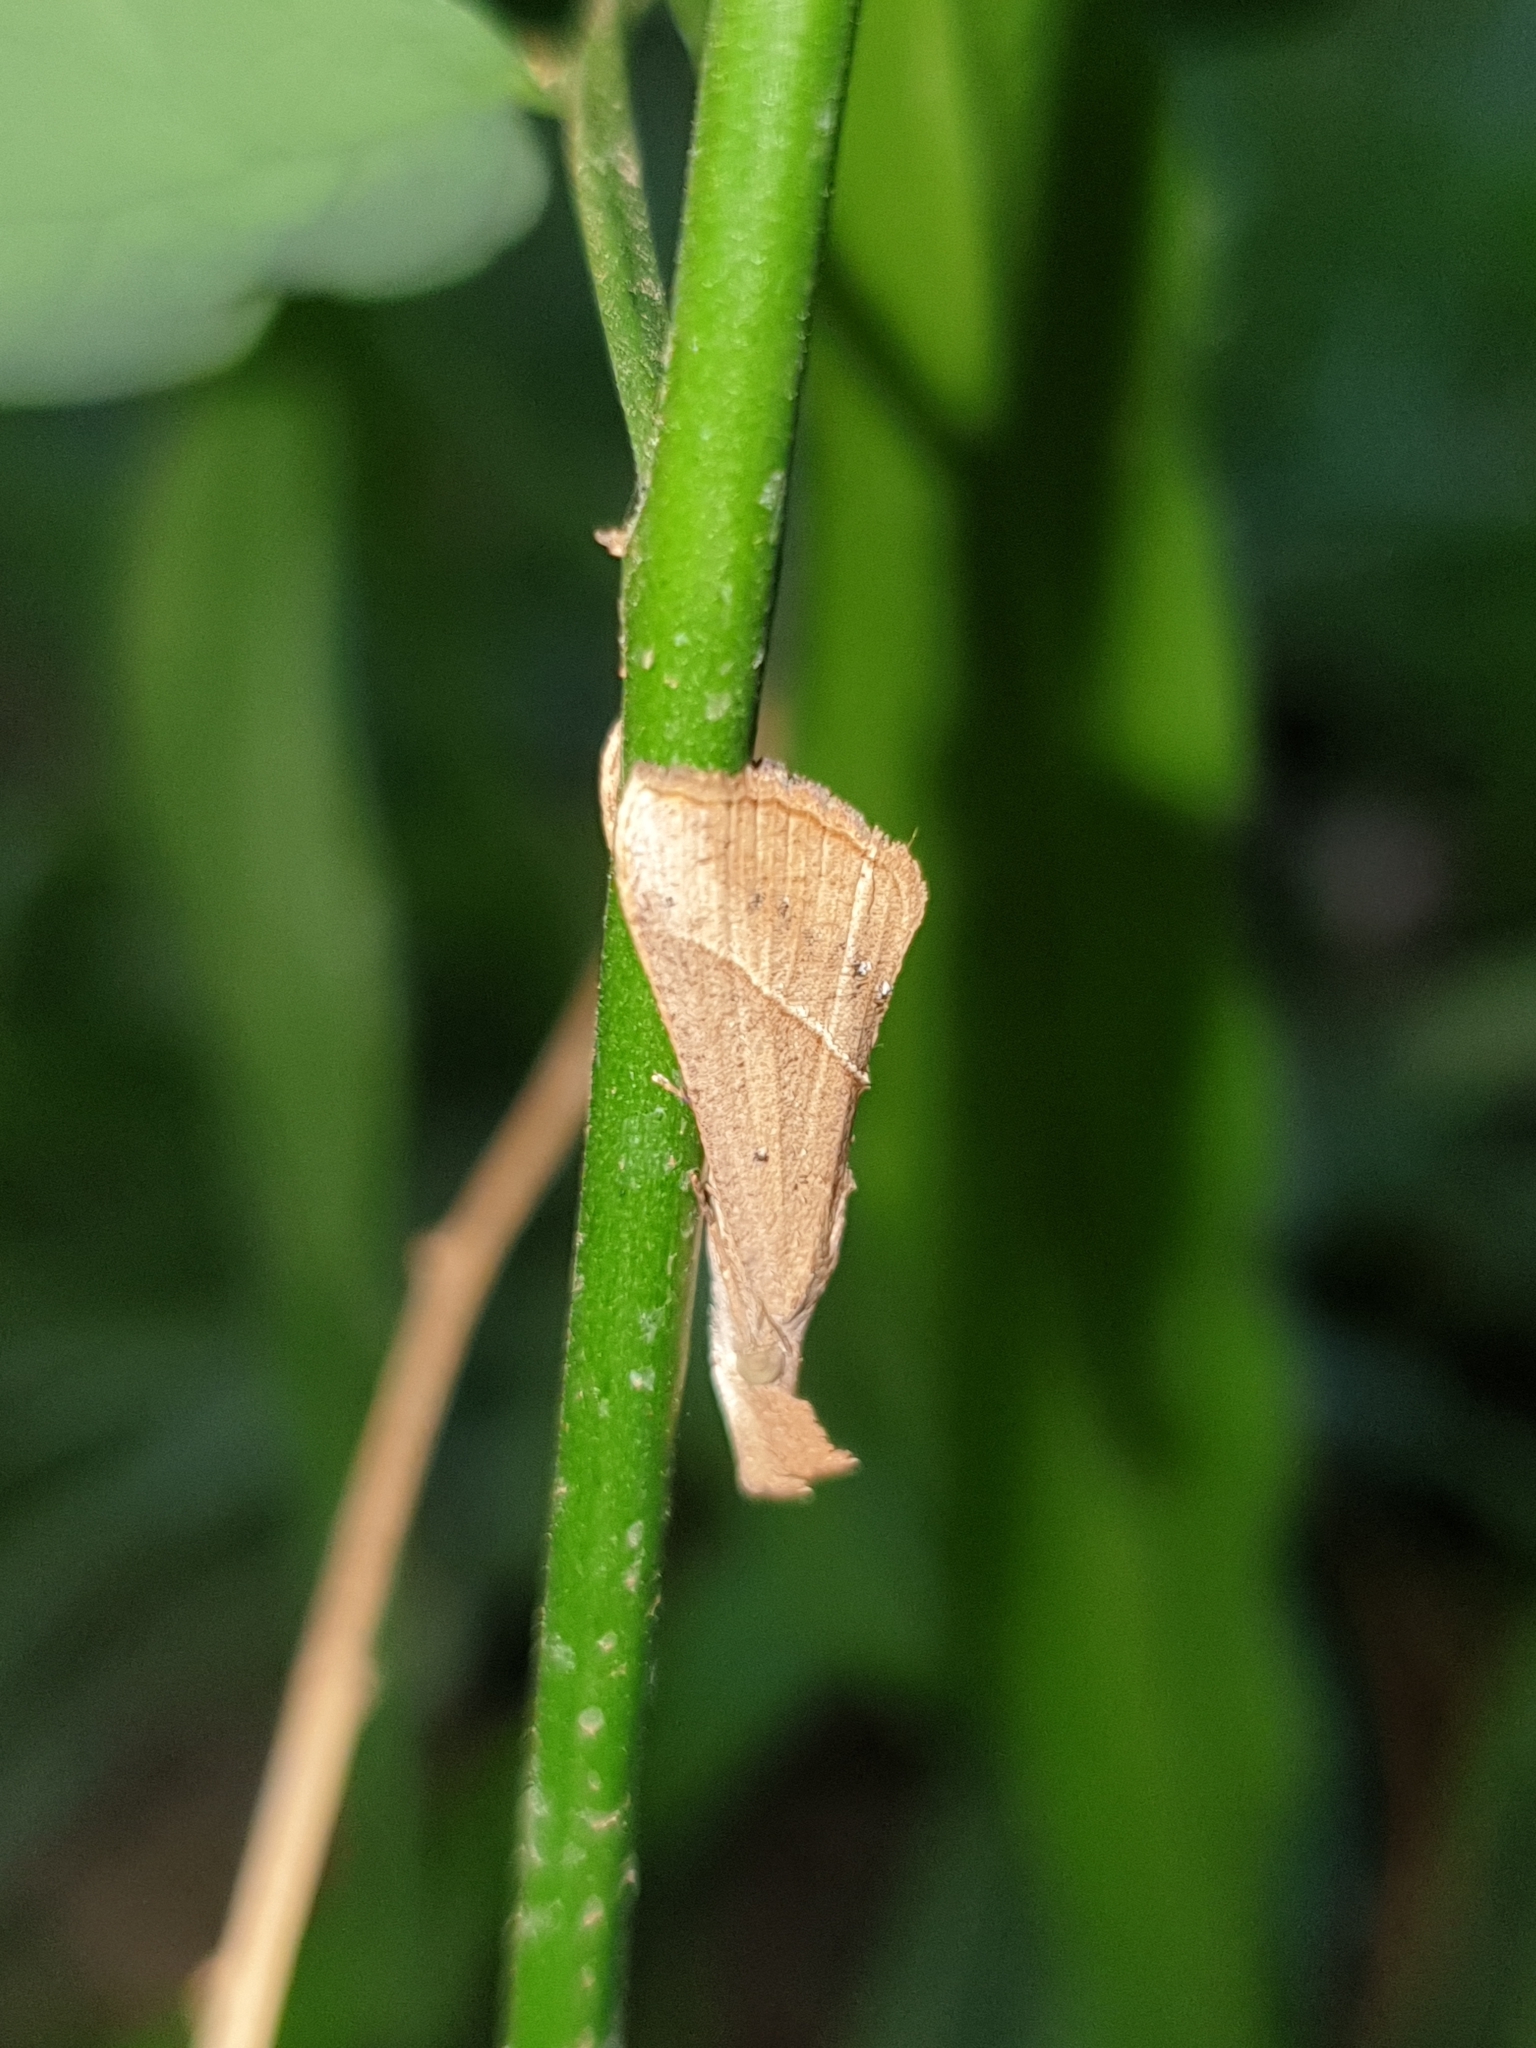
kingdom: Animalia
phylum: Arthropoda
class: Insecta
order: Lepidoptera
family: Erebidae
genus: Hypena
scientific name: Hypena lividalis
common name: Chevron snout
